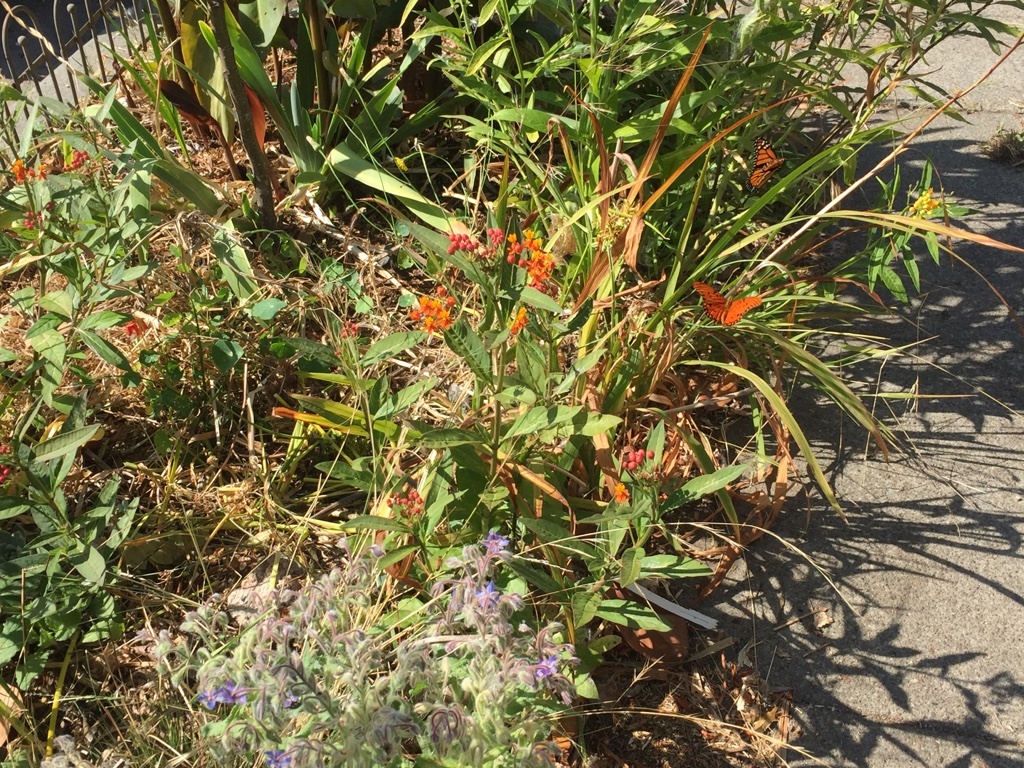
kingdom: Animalia
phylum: Arthropoda
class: Insecta
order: Lepidoptera
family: Nymphalidae
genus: Dione
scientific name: Dione vanillae
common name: Gulf fritillary
